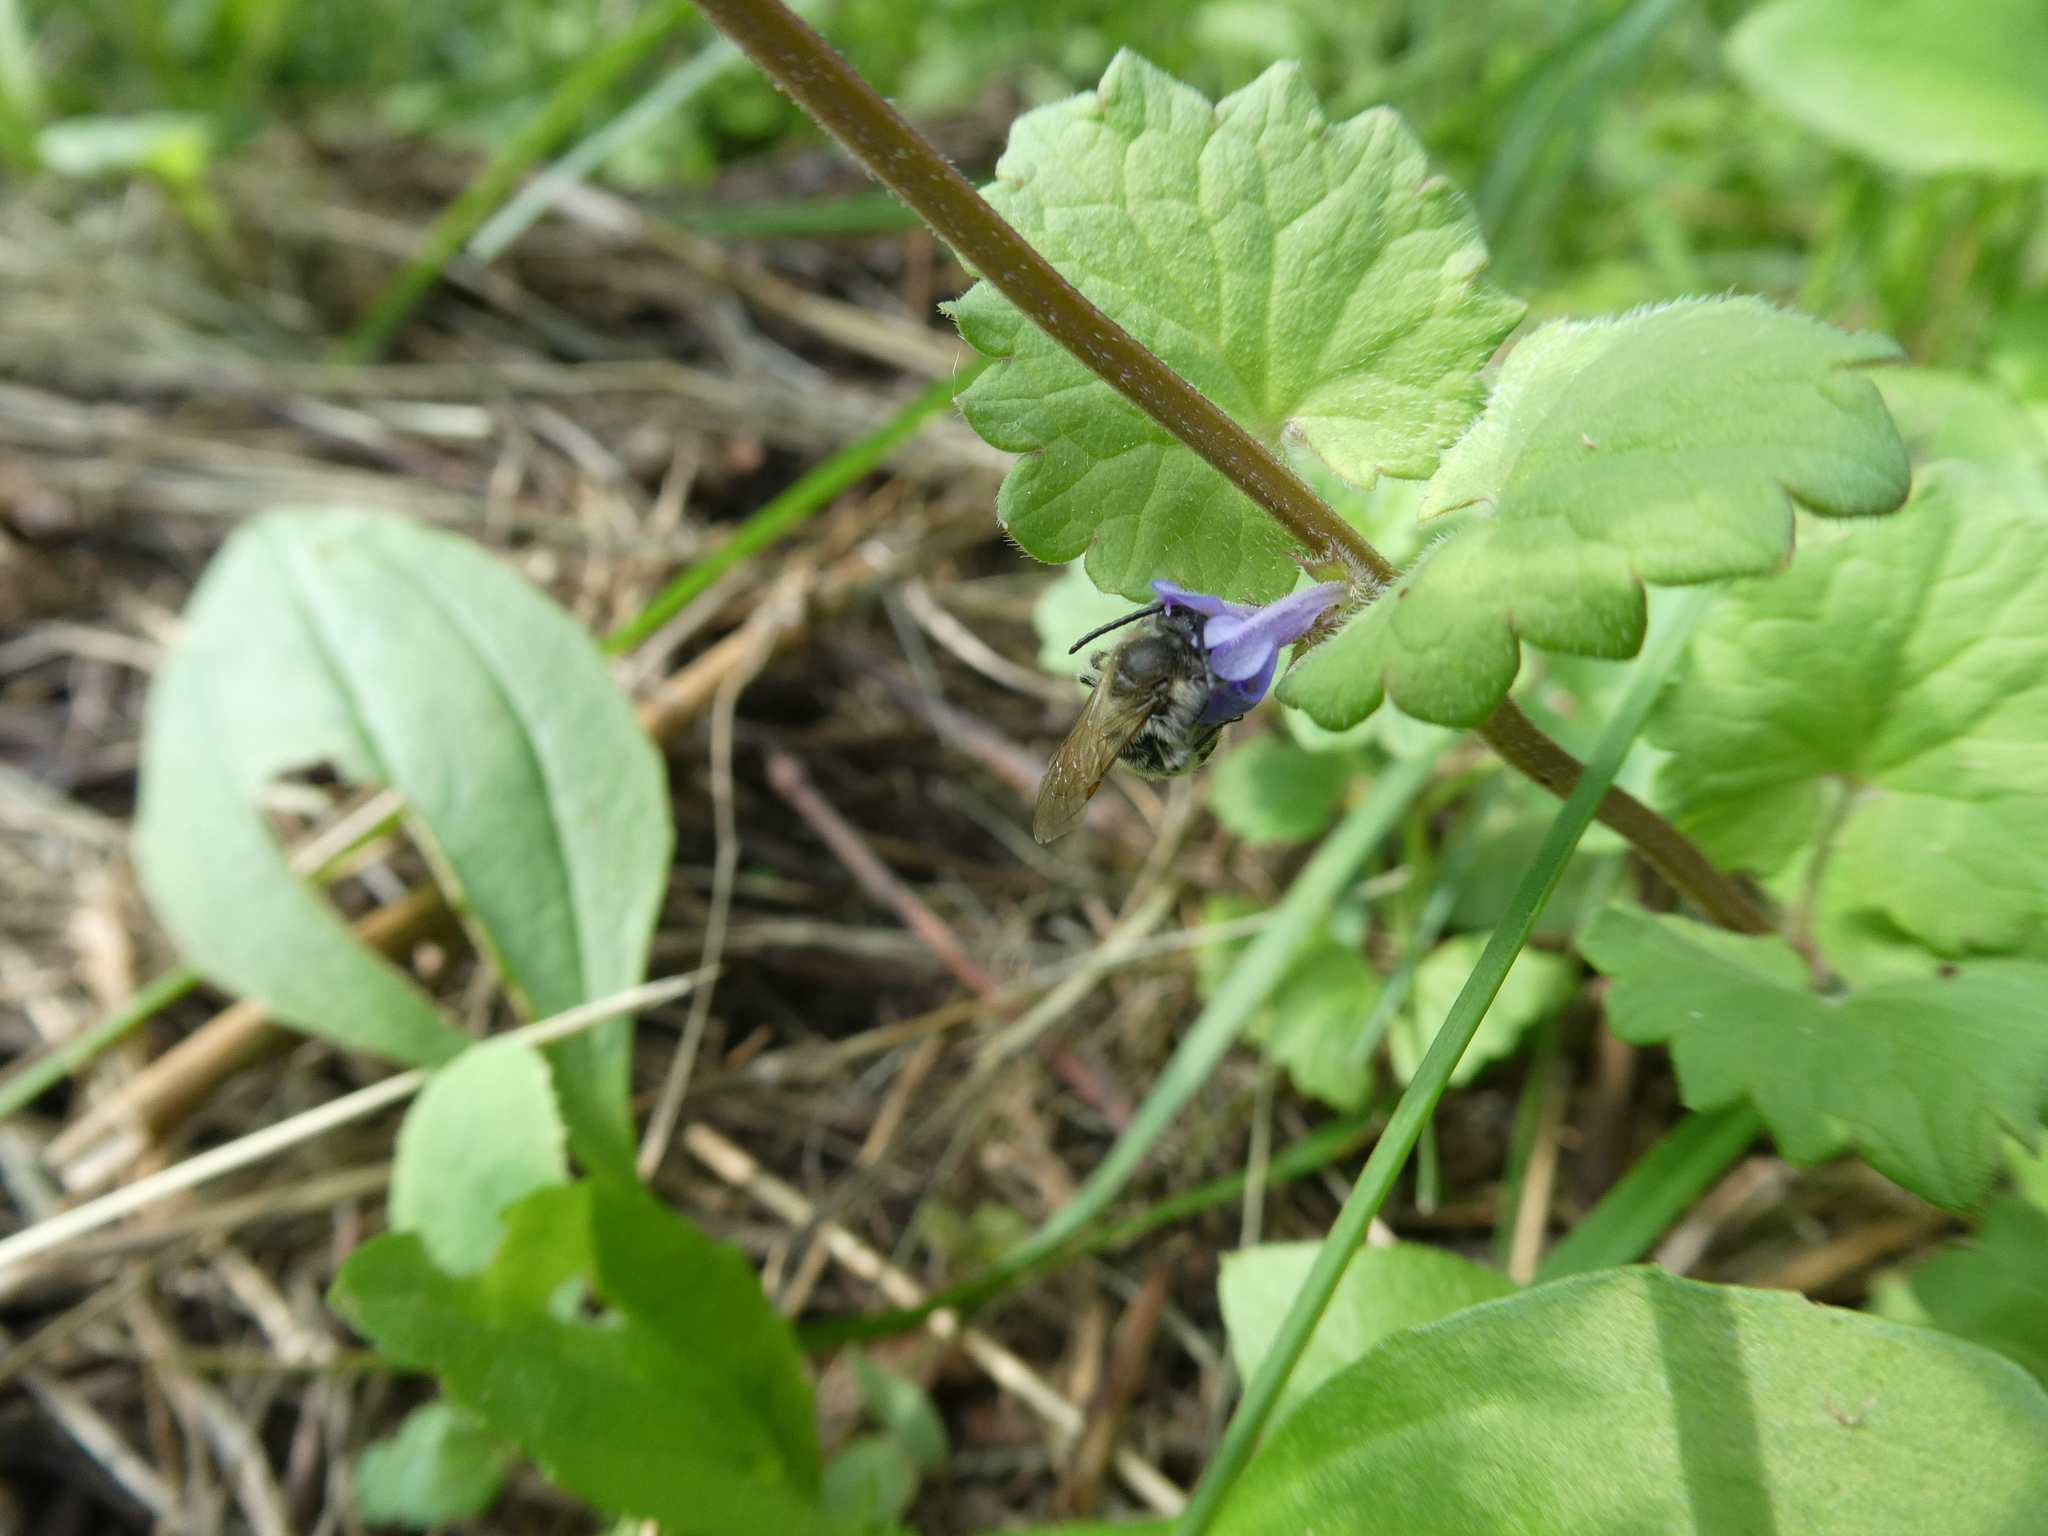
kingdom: Plantae
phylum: Tracheophyta
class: Magnoliopsida
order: Lamiales
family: Lamiaceae
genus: Glechoma
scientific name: Glechoma hederacea
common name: Ground ivy
